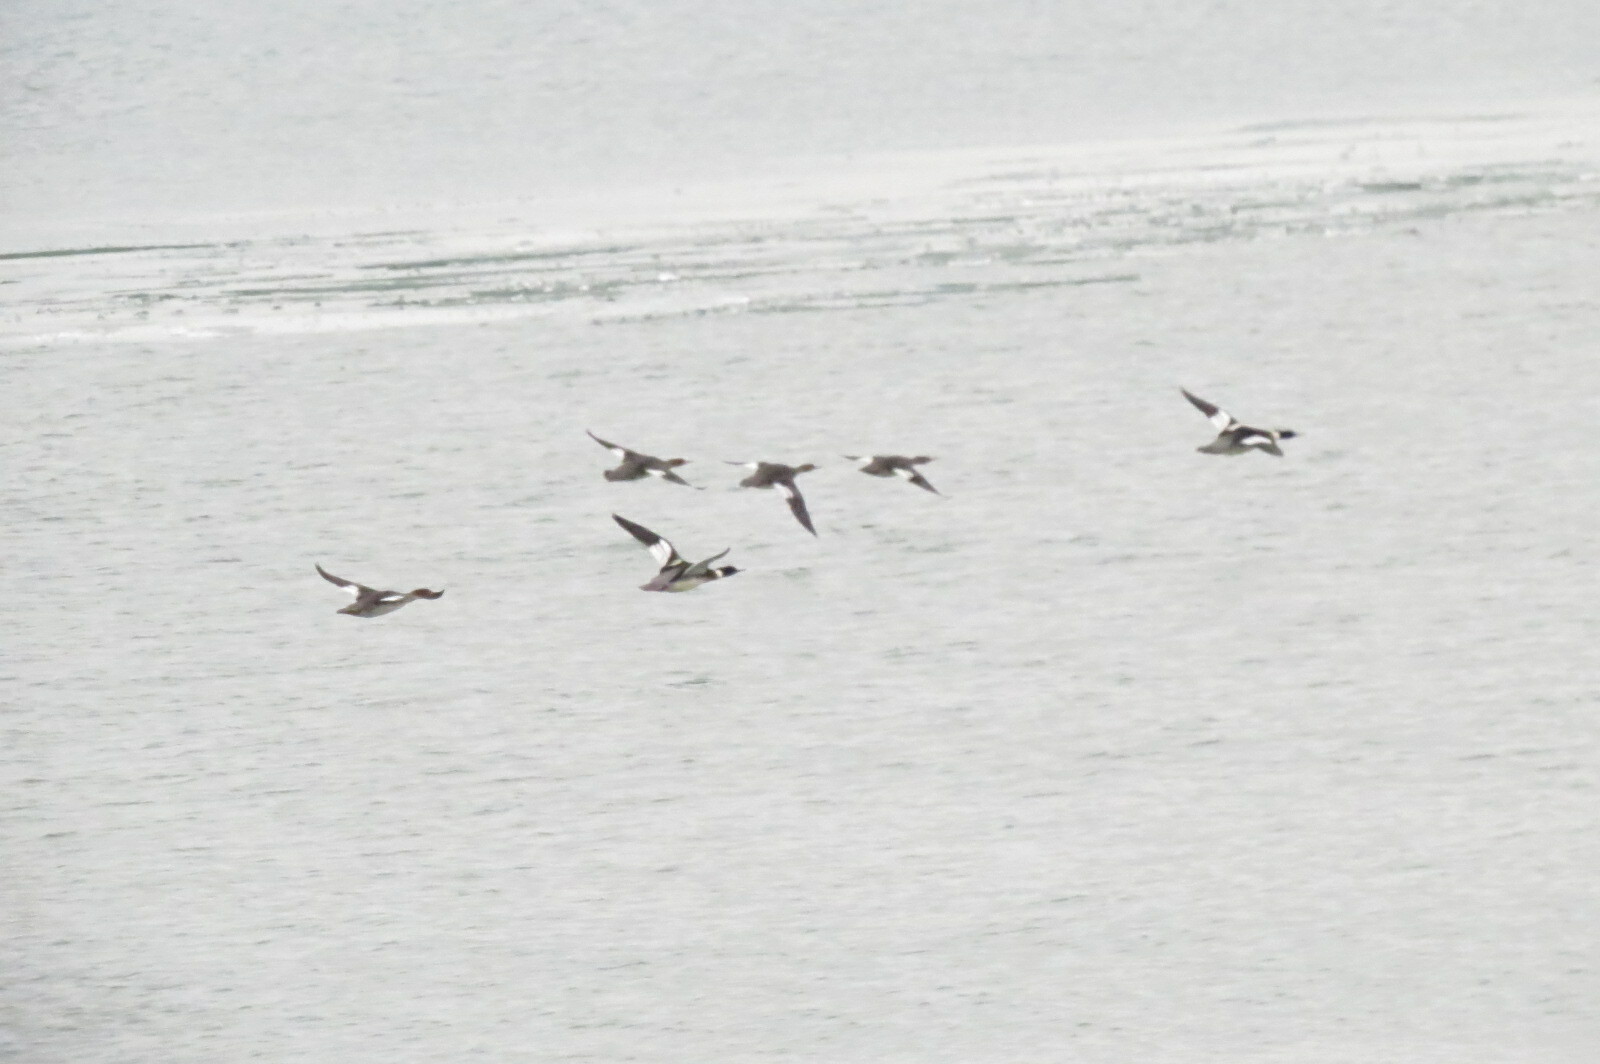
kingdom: Animalia
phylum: Chordata
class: Aves
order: Anseriformes
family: Anatidae
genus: Mergus
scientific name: Mergus serrator
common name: Red-breasted merganser
